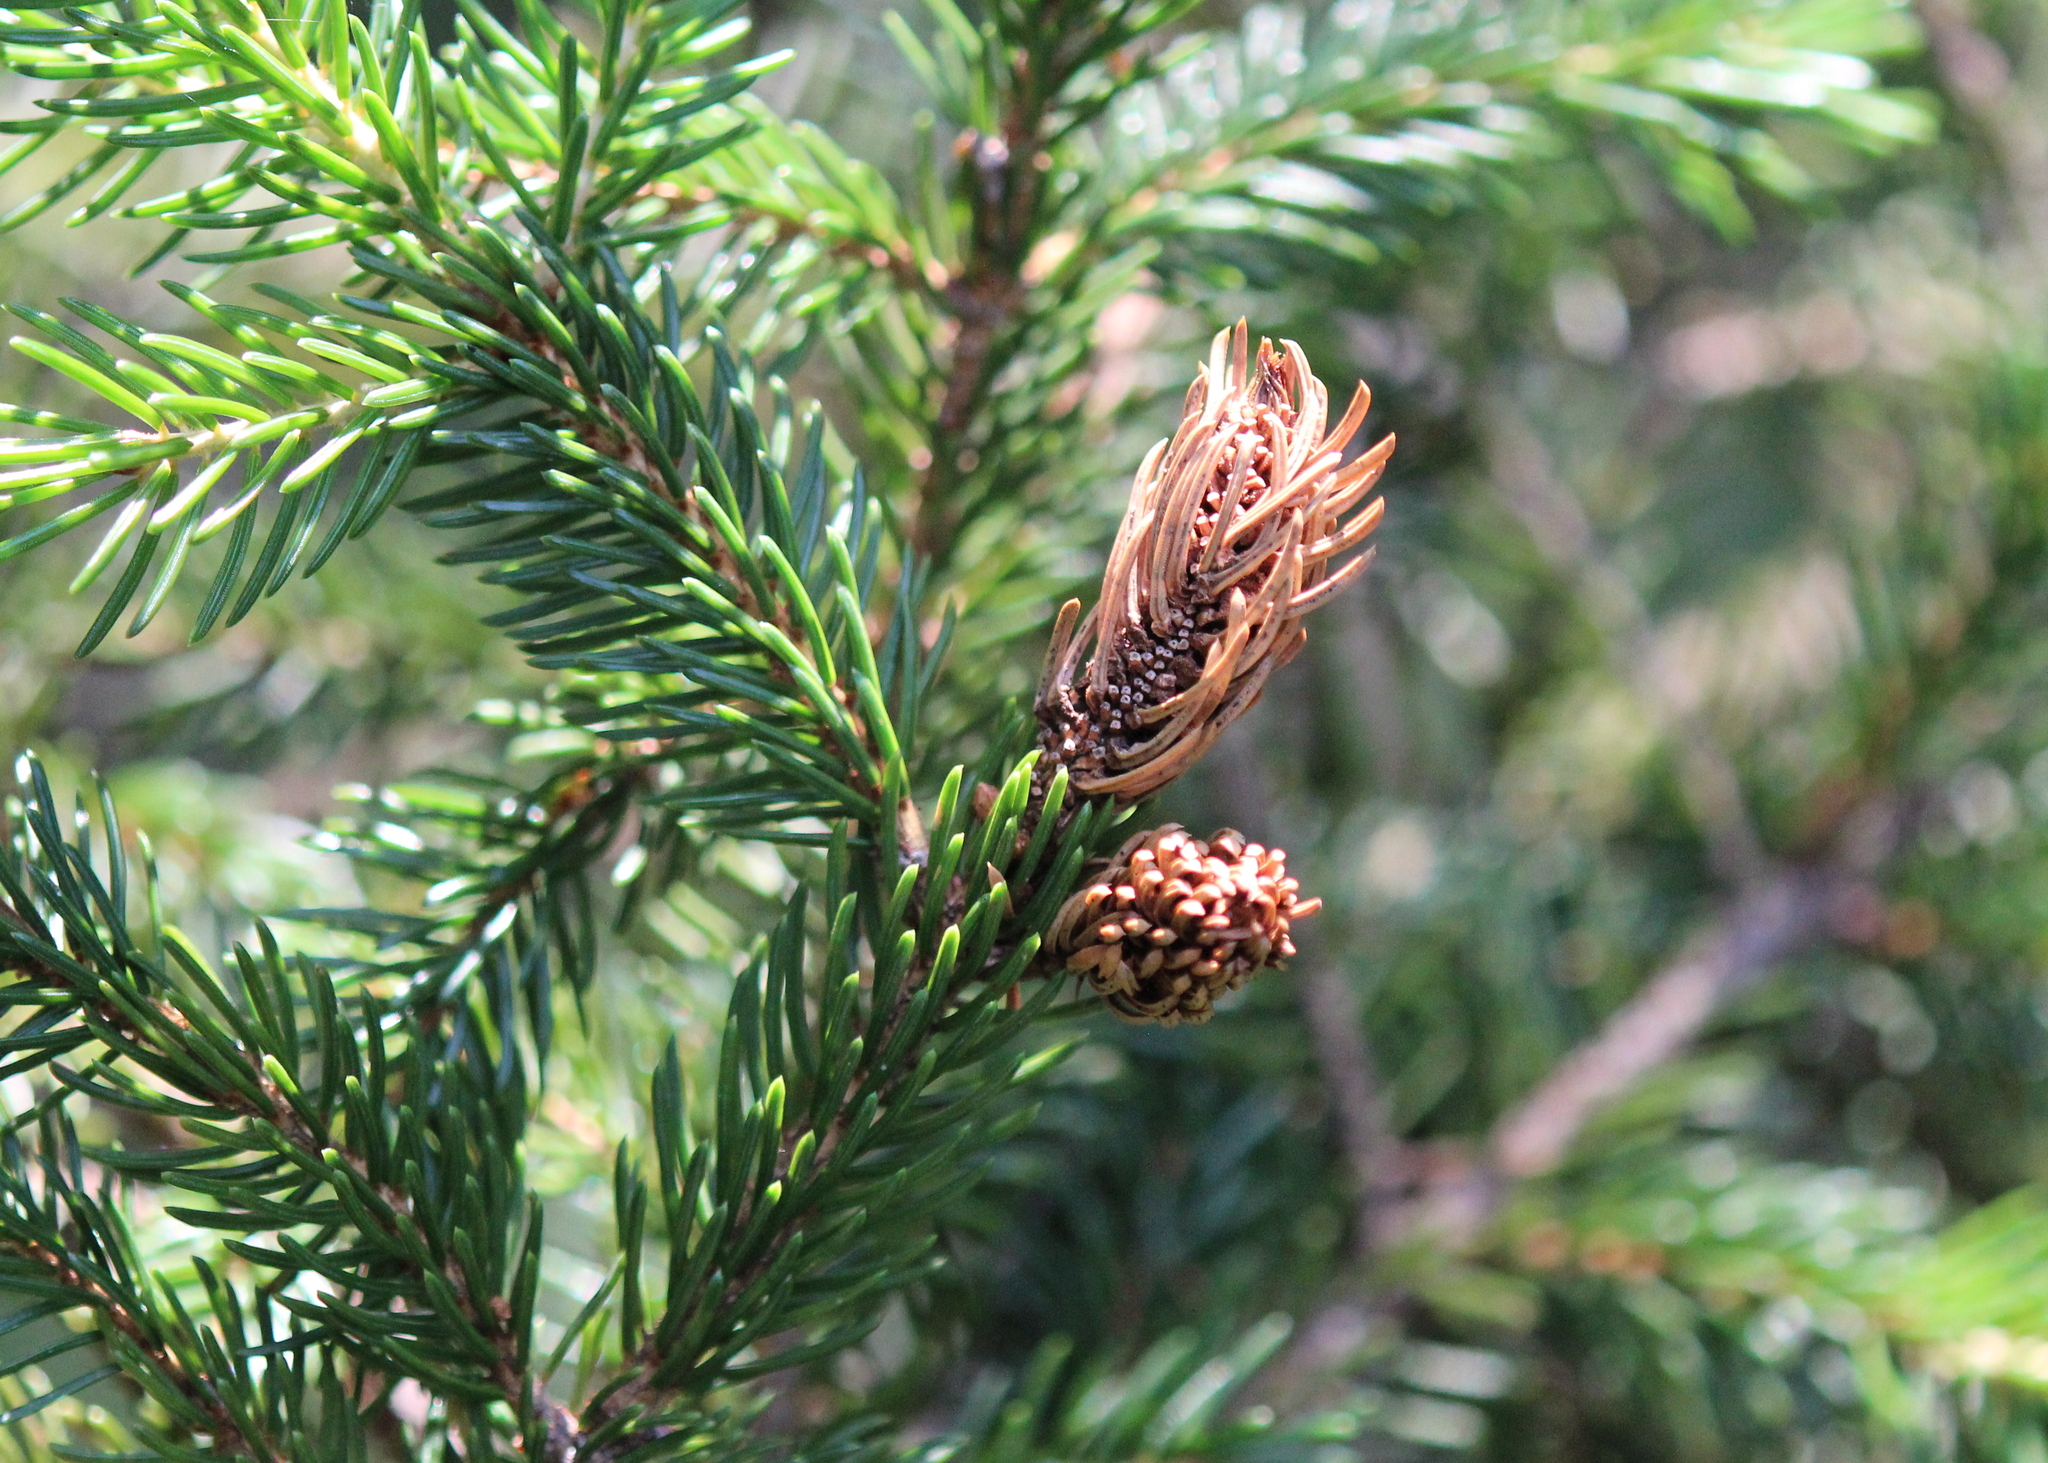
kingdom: Plantae
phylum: Tracheophyta
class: Pinopsida
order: Pinales
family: Pinaceae
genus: Picea
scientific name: Picea rubens
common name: Red spruce
